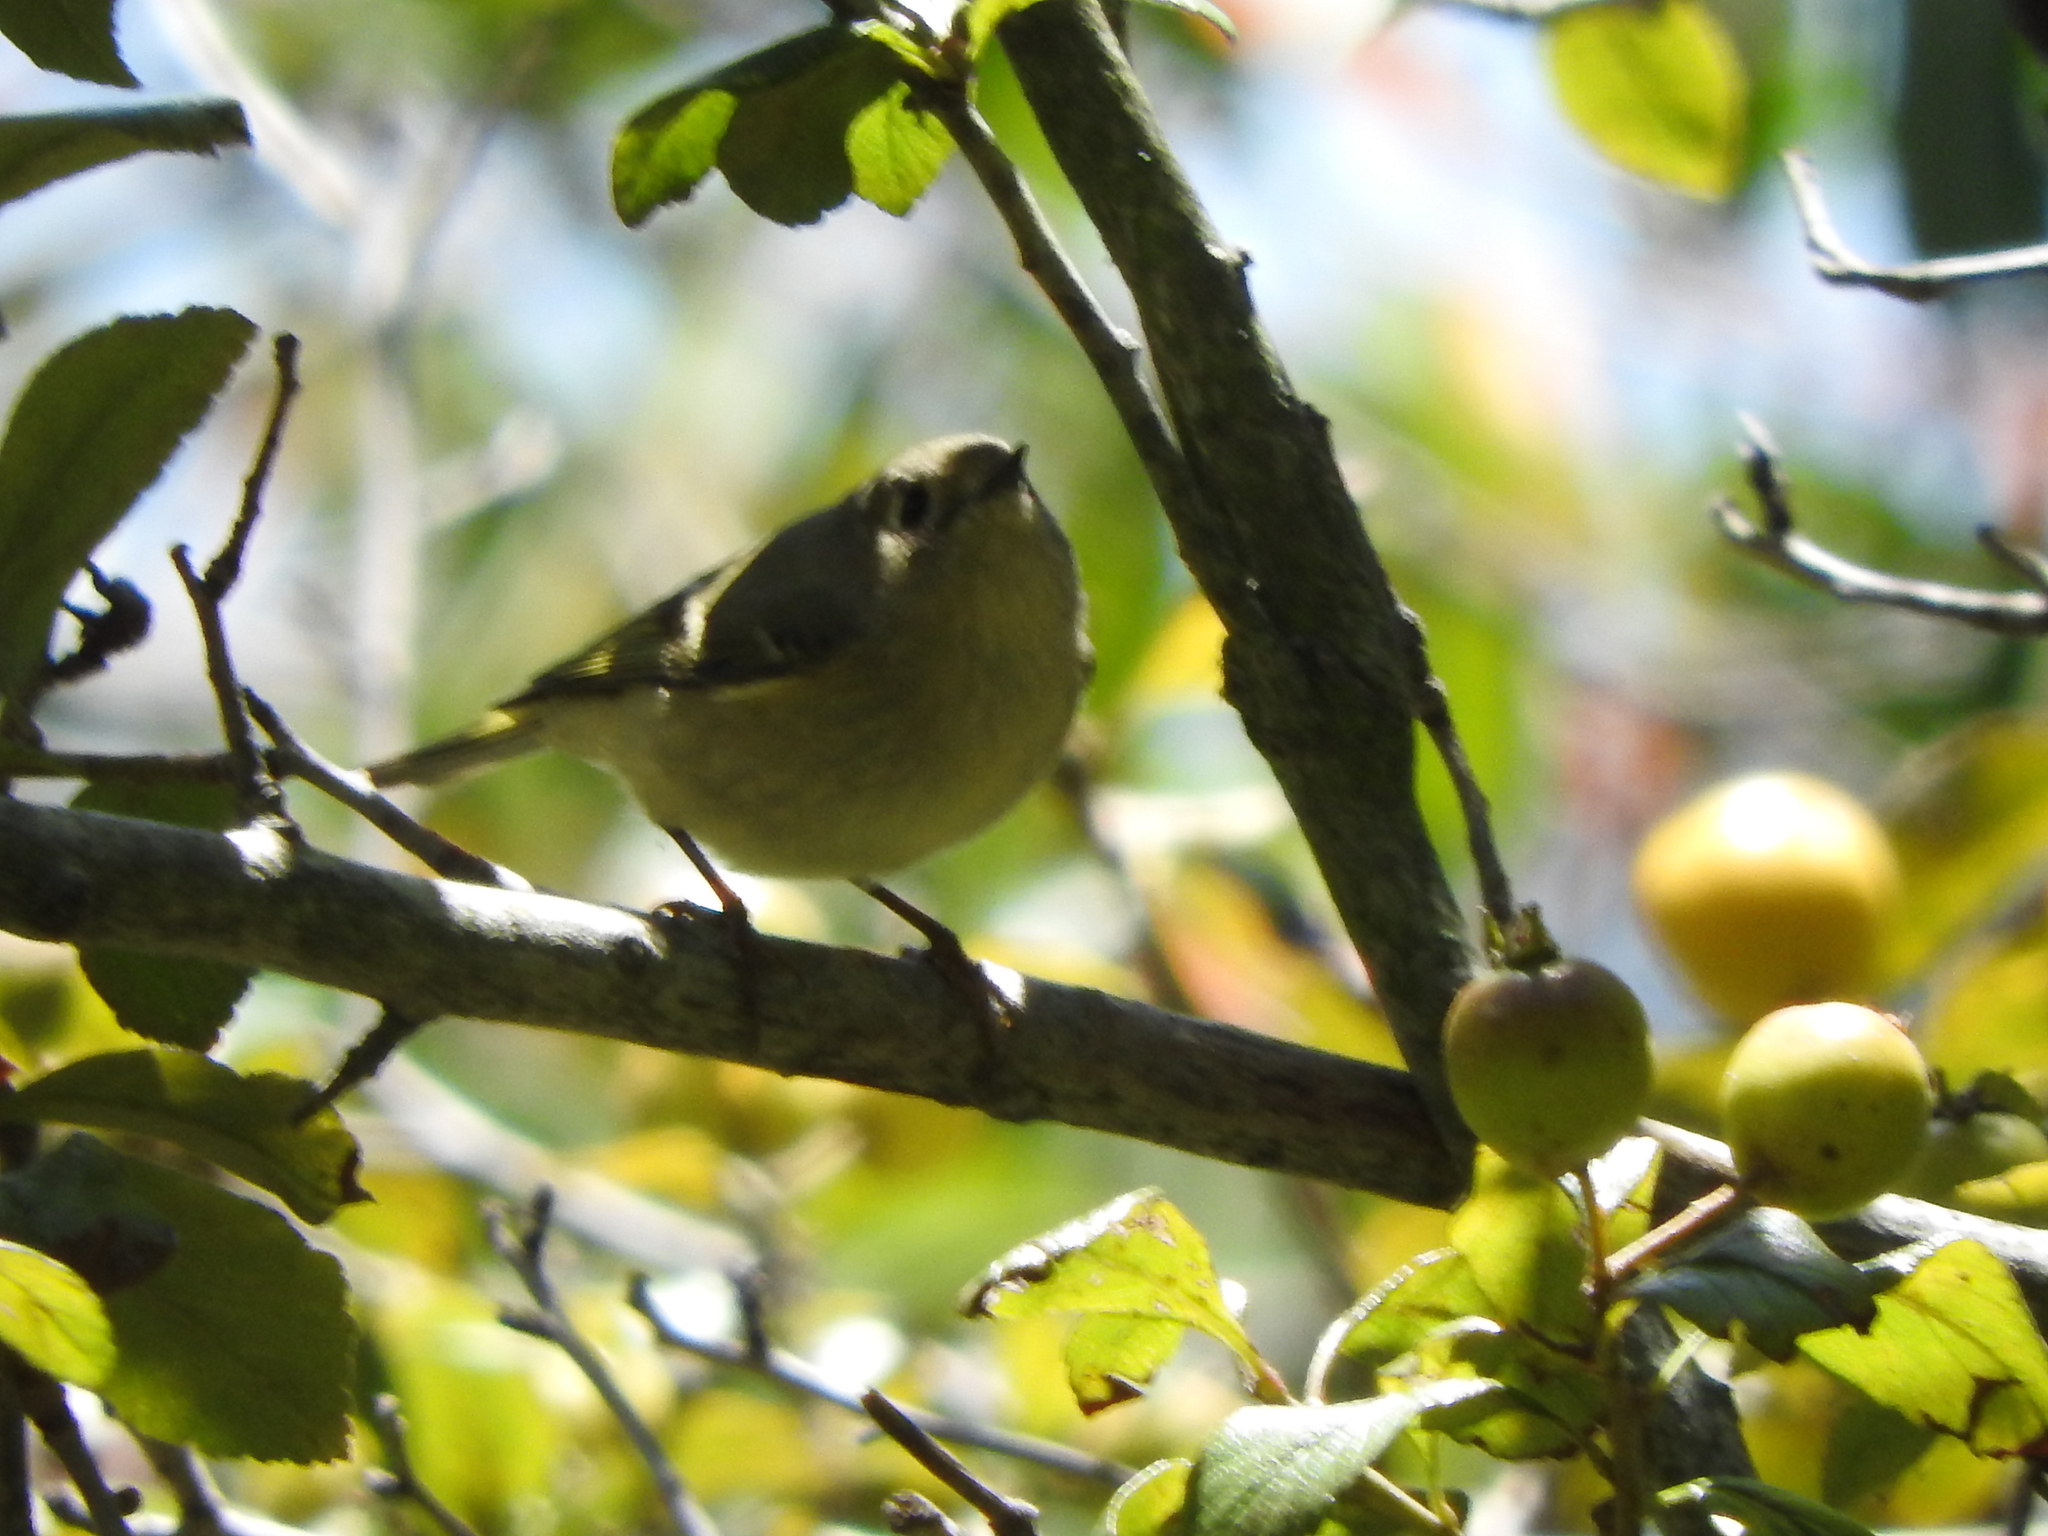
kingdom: Animalia
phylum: Chordata
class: Aves
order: Passeriformes
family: Regulidae
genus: Regulus
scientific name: Regulus calendula
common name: Ruby-crowned kinglet
